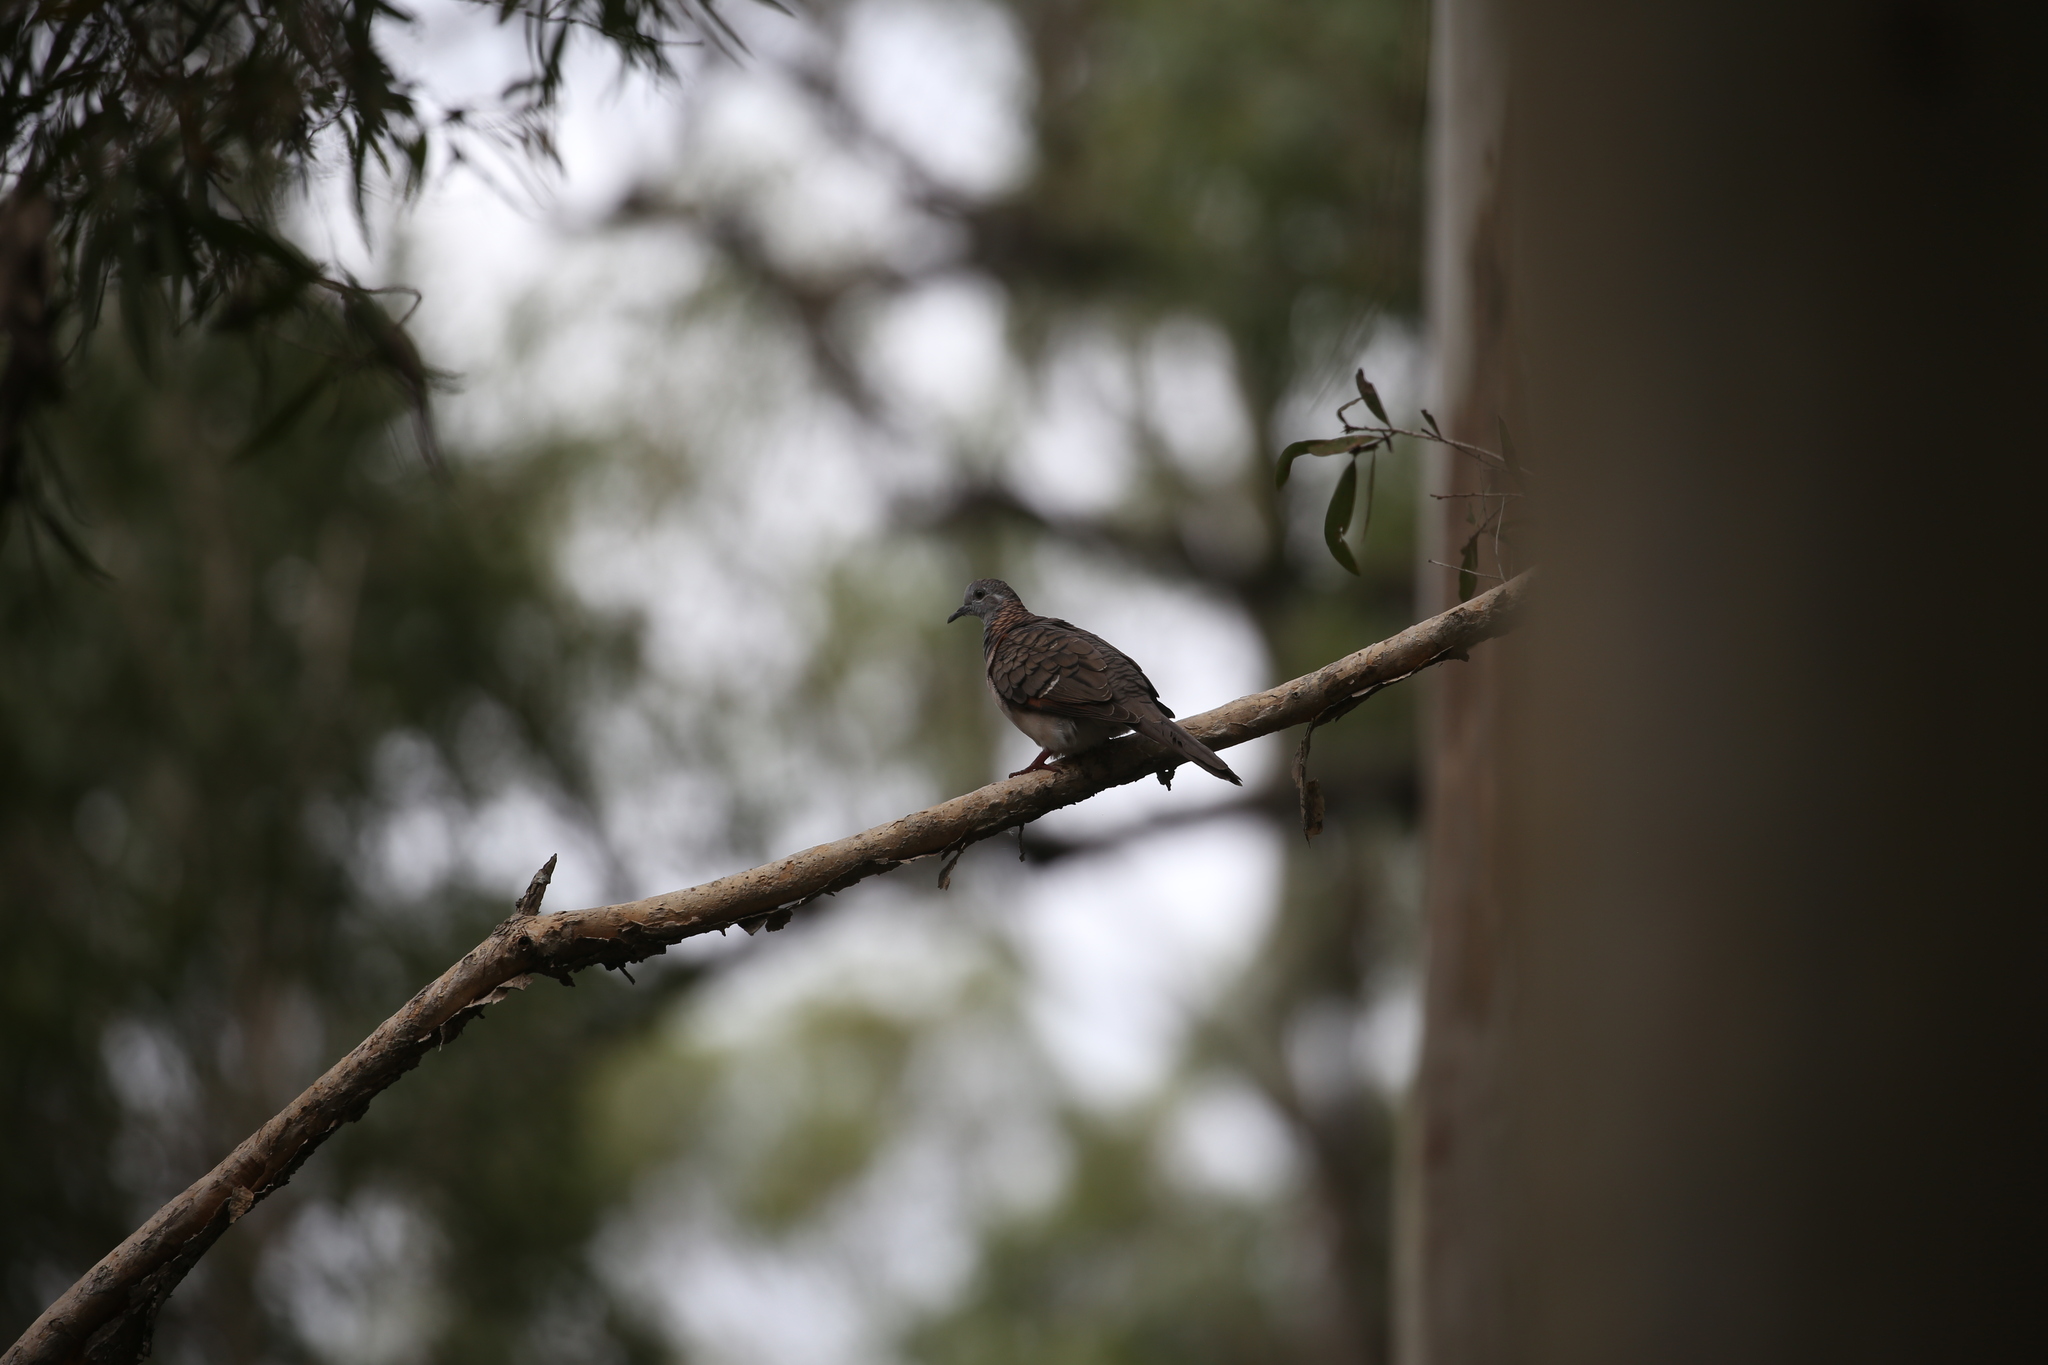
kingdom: Animalia
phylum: Chordata
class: Aves
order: Columbiformes
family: Columbidae
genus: Geopelia
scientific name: Geopelia humeralis
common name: Bar-shouldered dove
